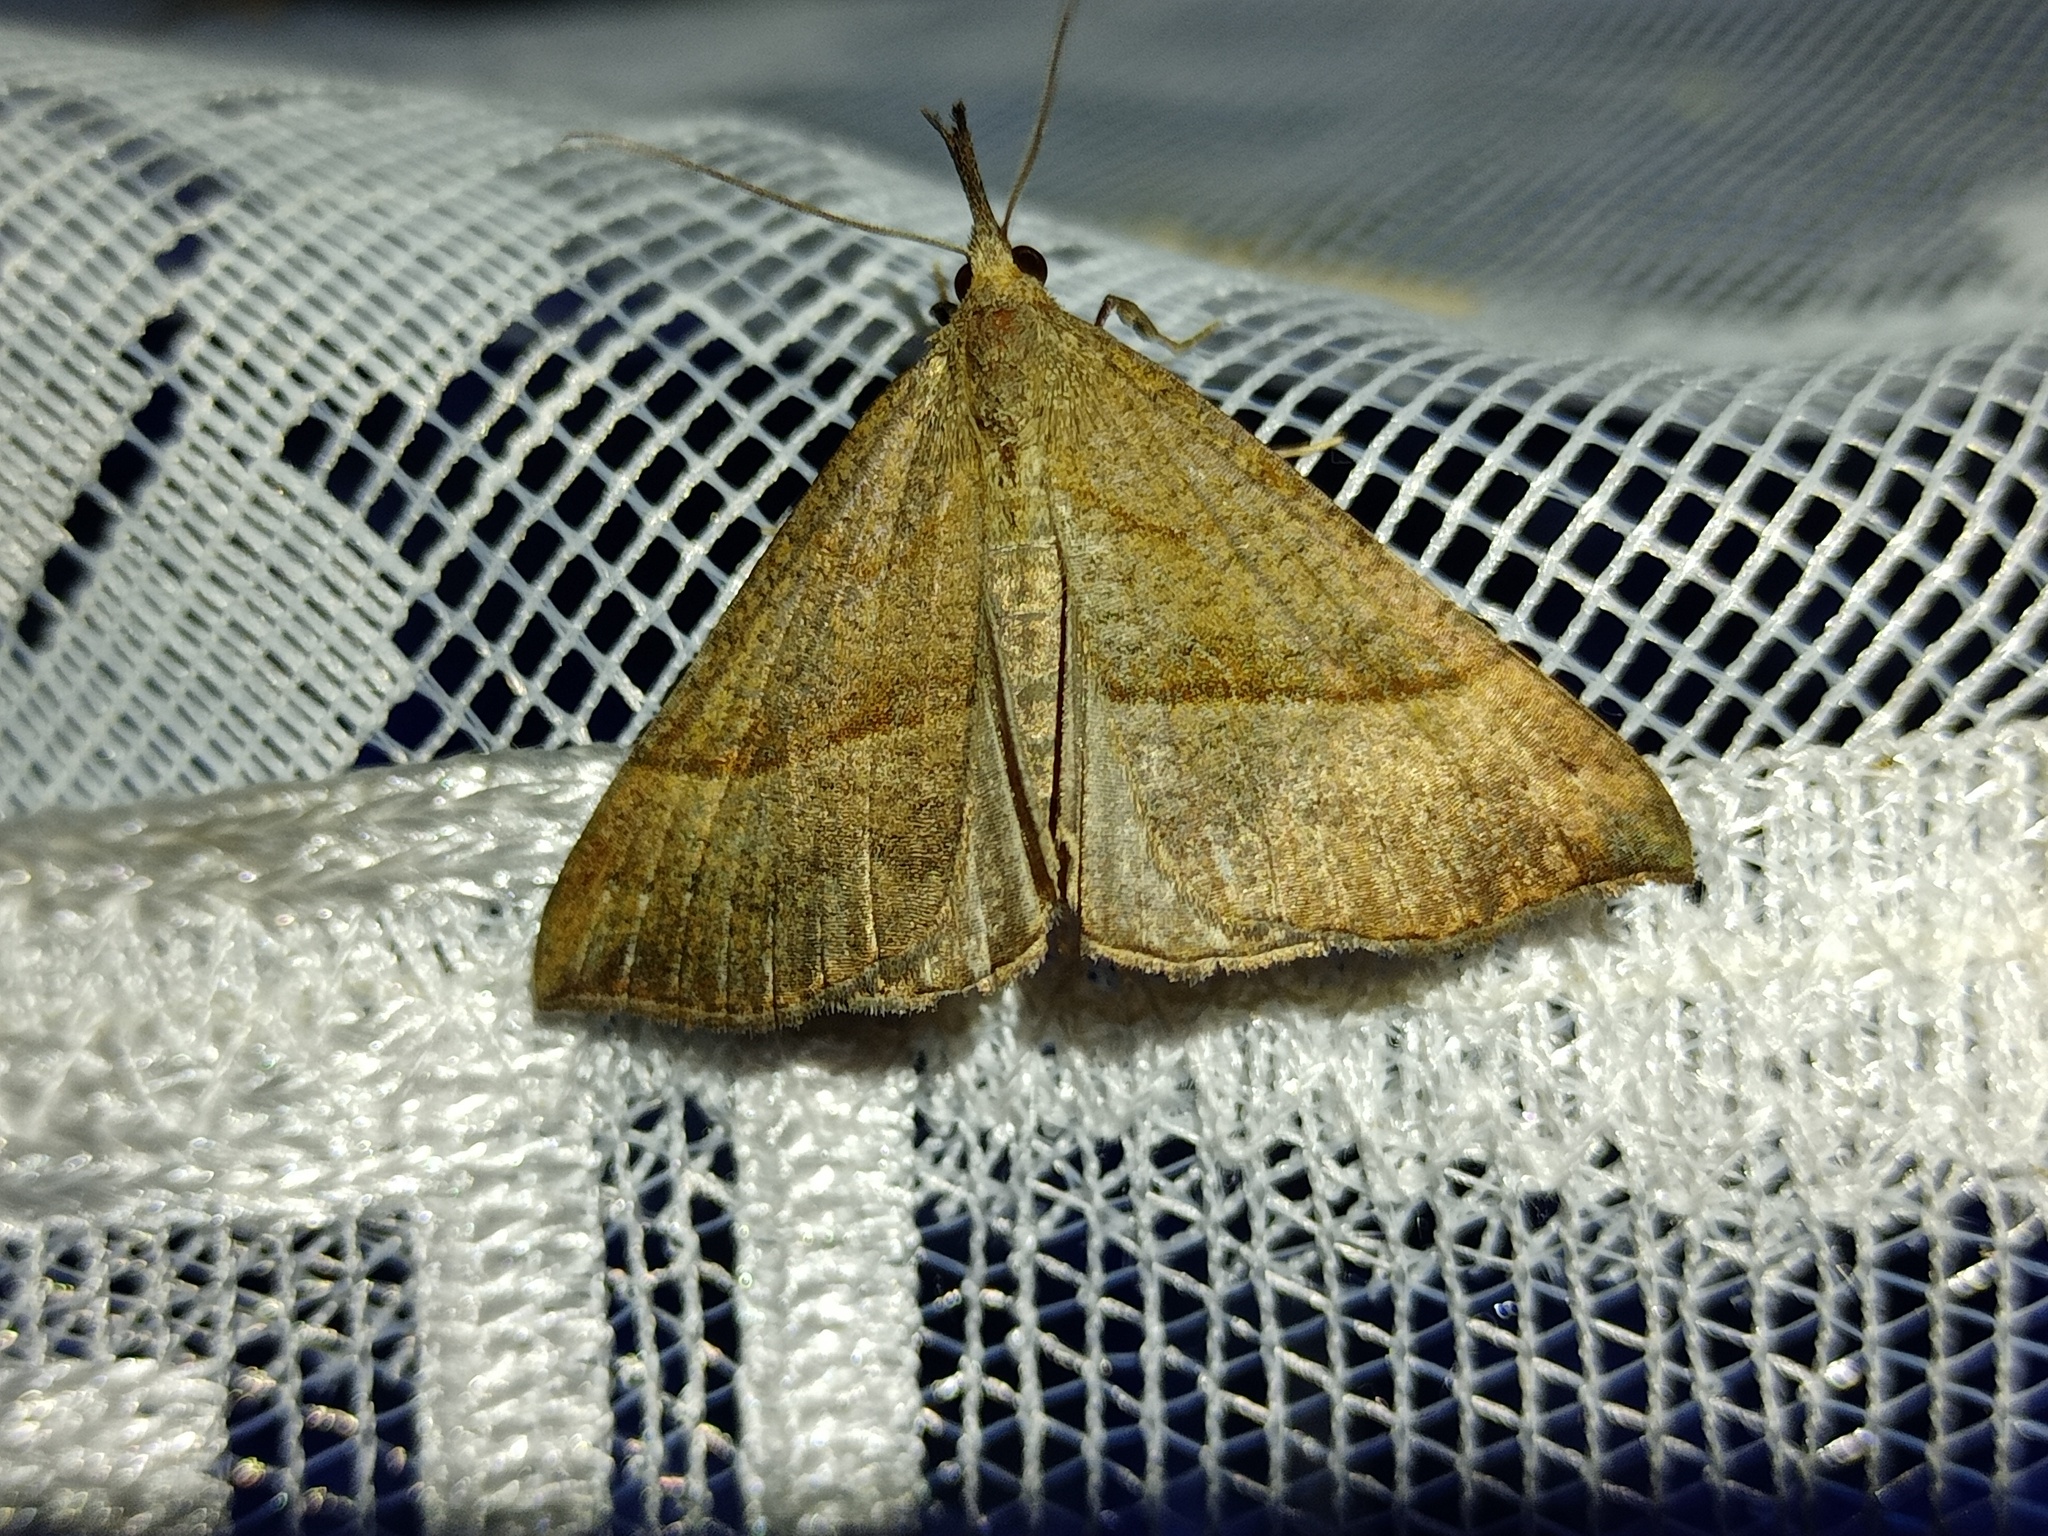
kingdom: Animalia
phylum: Arthropoda
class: Insecta
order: Lepidoptera
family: Erebidae
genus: Hypena
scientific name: Hypena proboscidalis
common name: Snout
